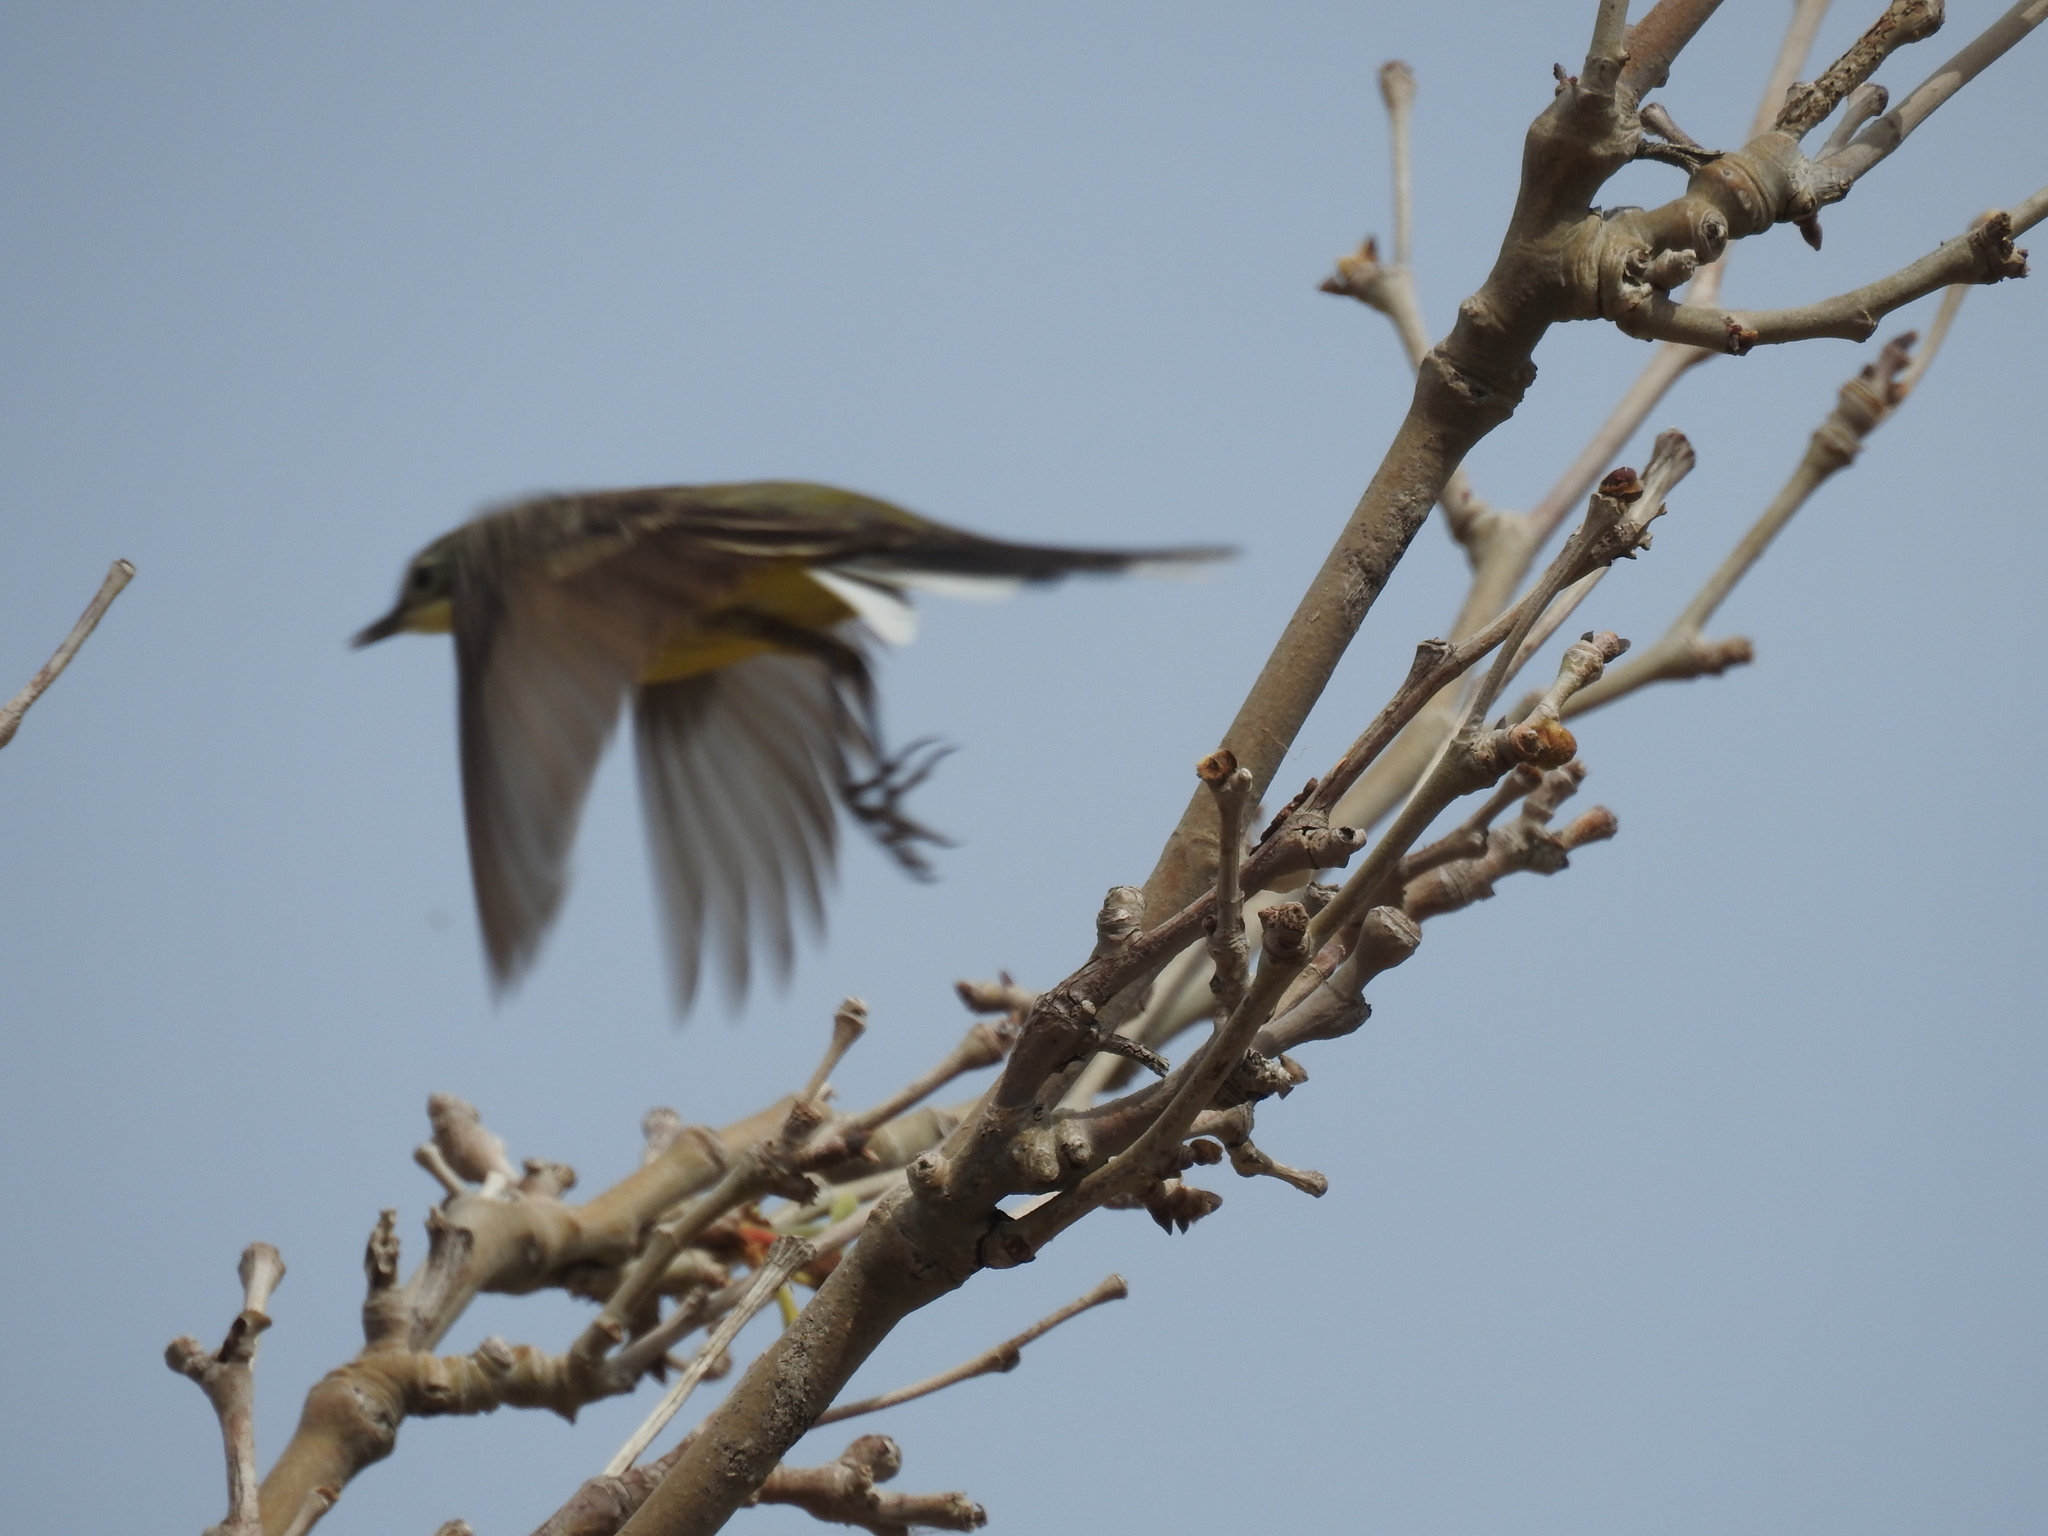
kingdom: Animalia
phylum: Chordata
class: Aves
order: Passeriformes
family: Motacillidae
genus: Motacilla
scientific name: Motacilla flava
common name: Western yellow wagtail
